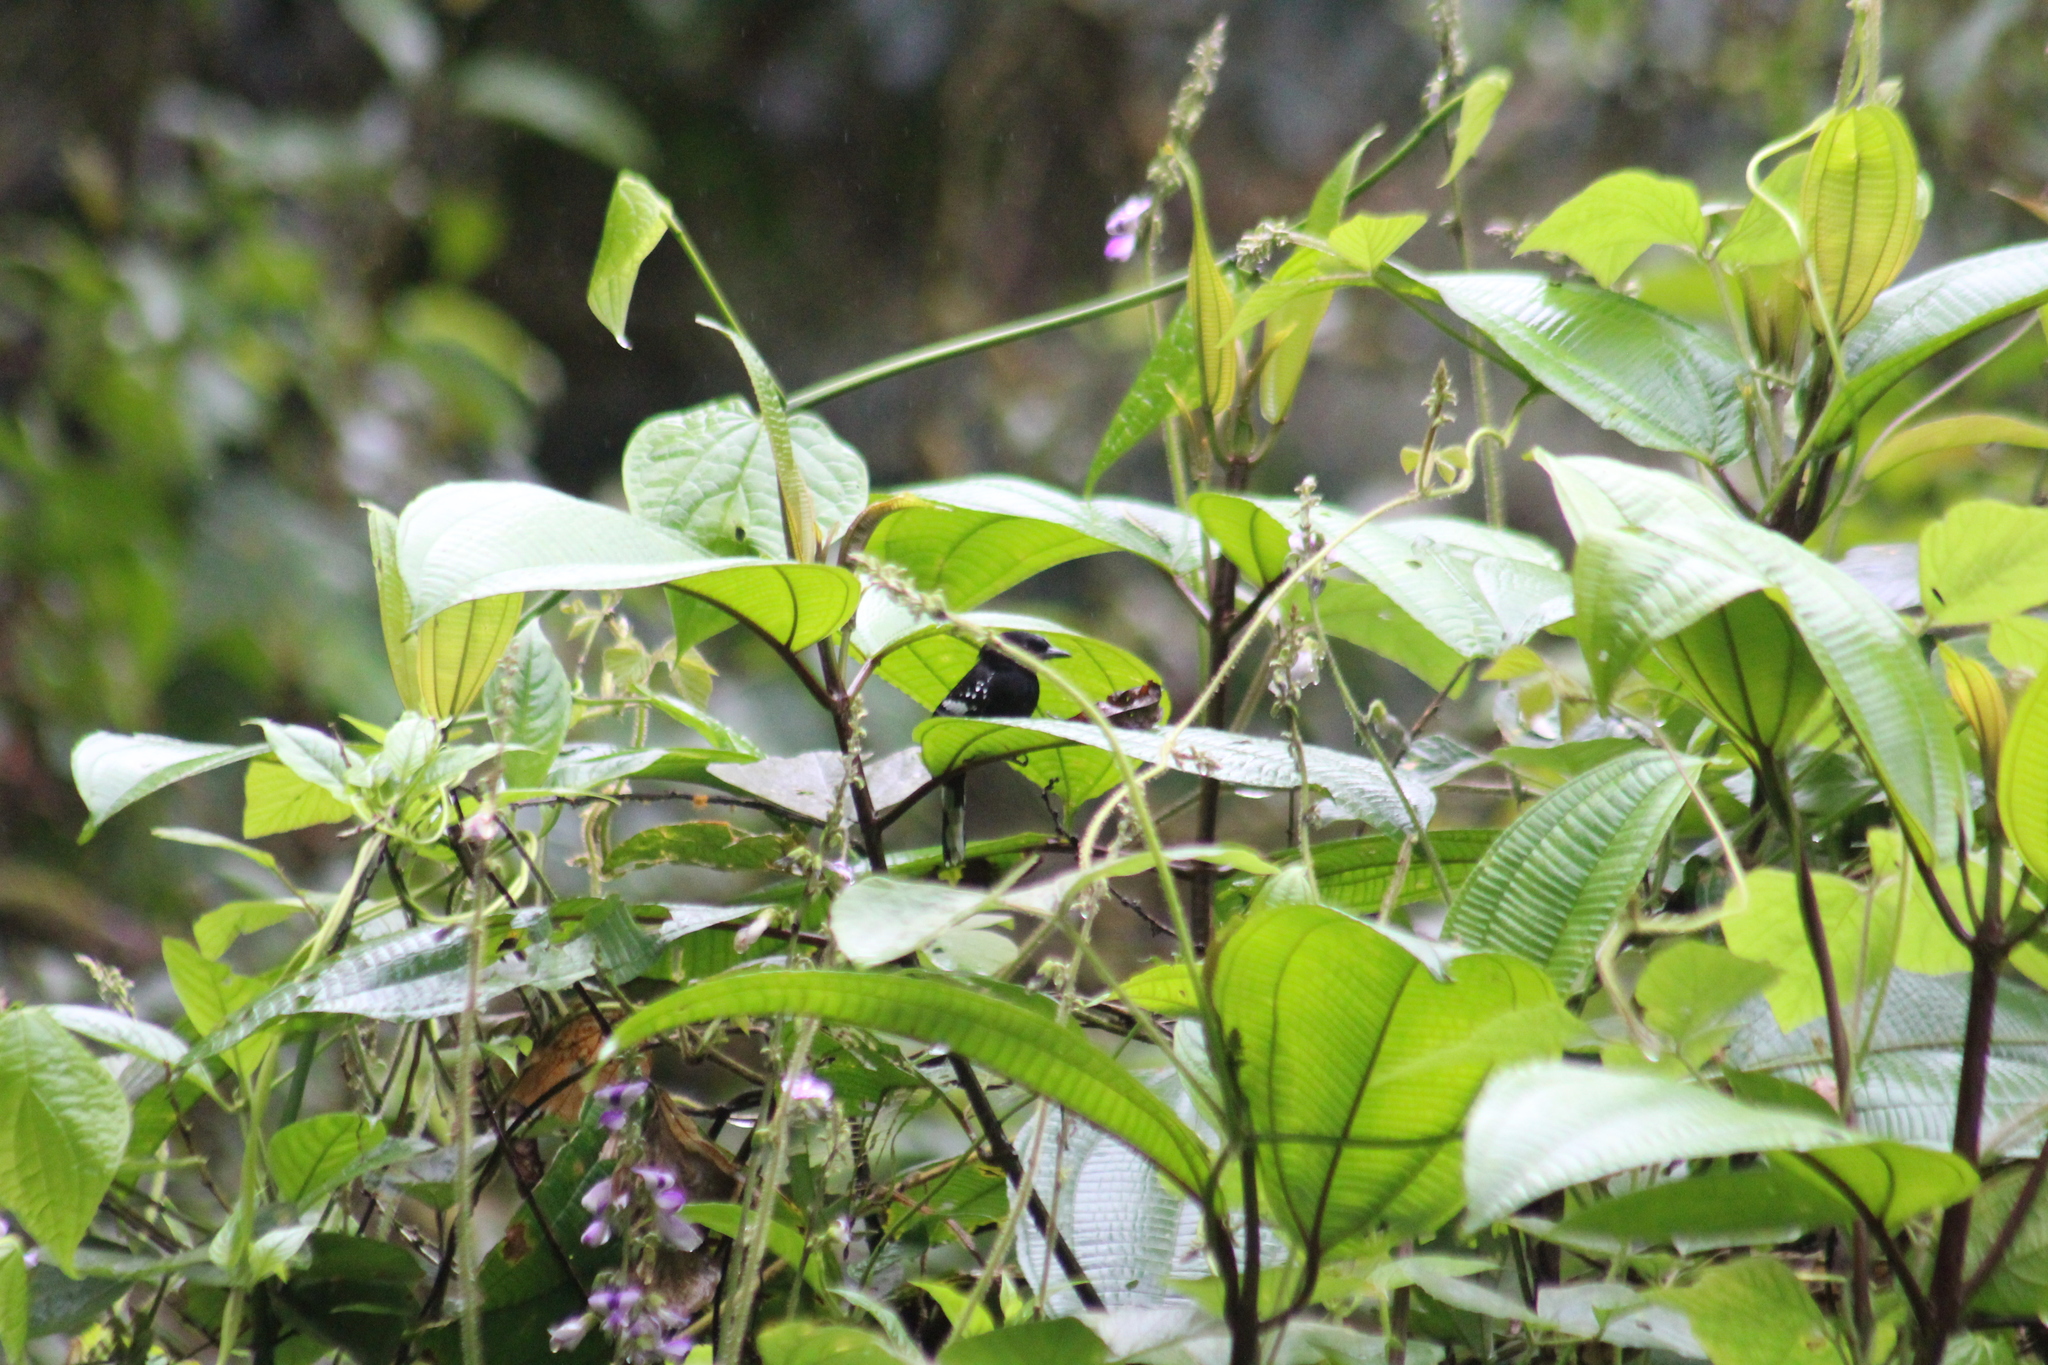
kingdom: Animalia
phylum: Chordata
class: Aves
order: Passeriformes
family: Thamnophilidae
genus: Microrhopias
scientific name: Microrhopias quixensis
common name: Dot-winged antwren
